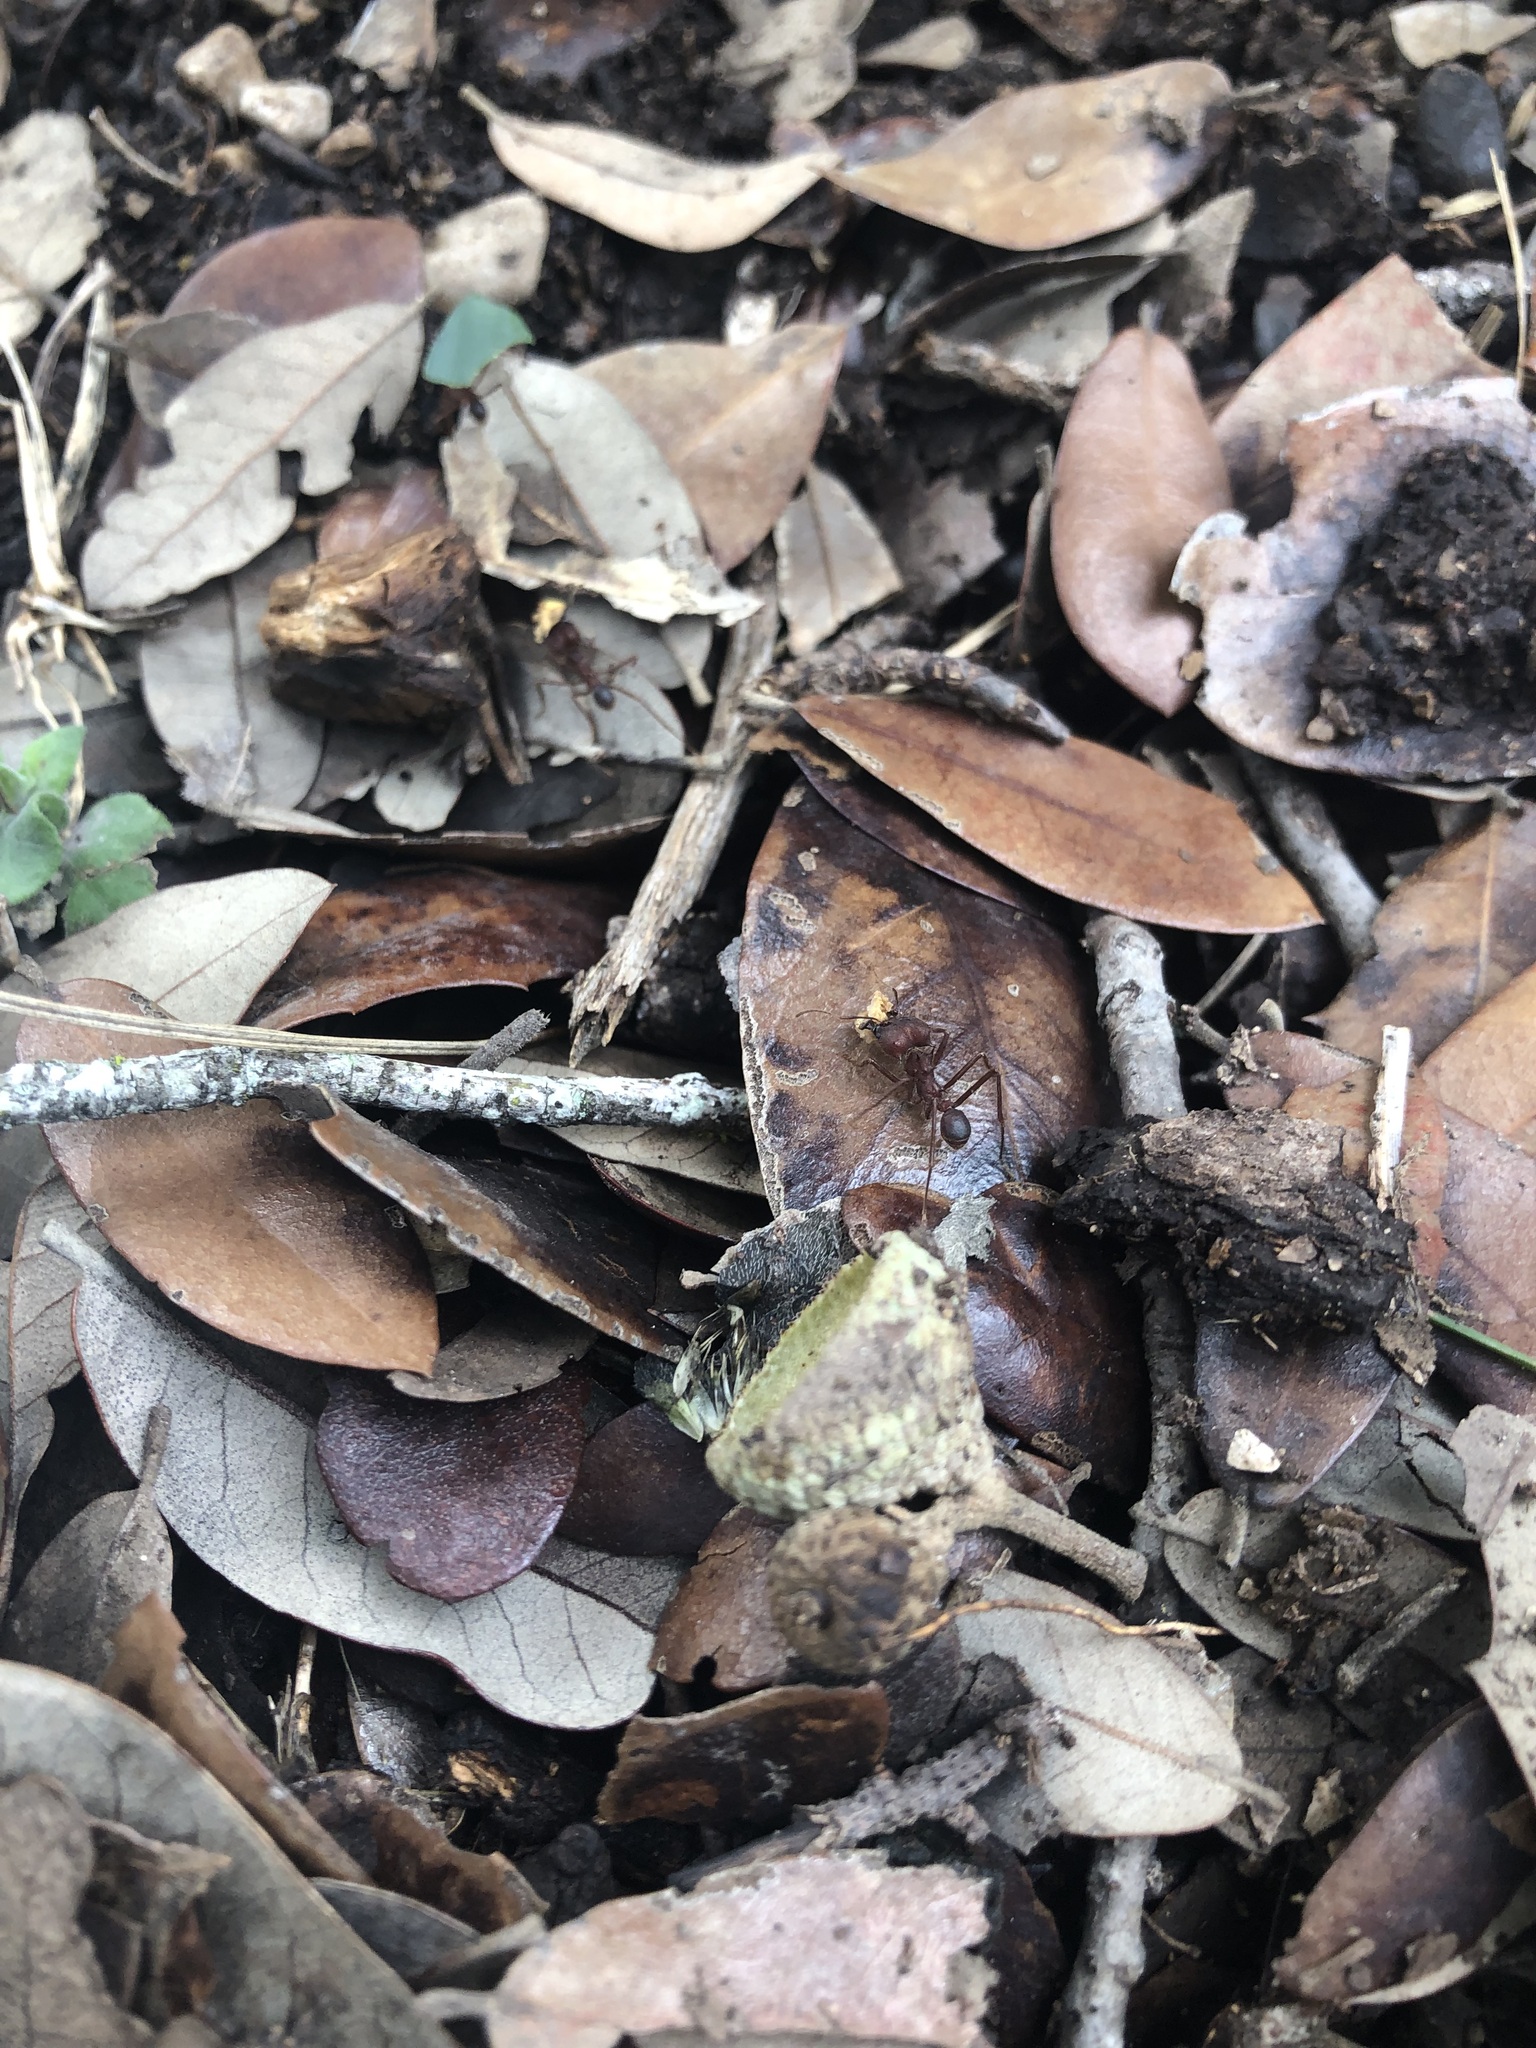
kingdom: Animalia
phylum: Arthropoda
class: Insecta
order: Hymenoptera
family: Formicidae
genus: Atta
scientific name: Atta texana
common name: Texas leafcutting ant
